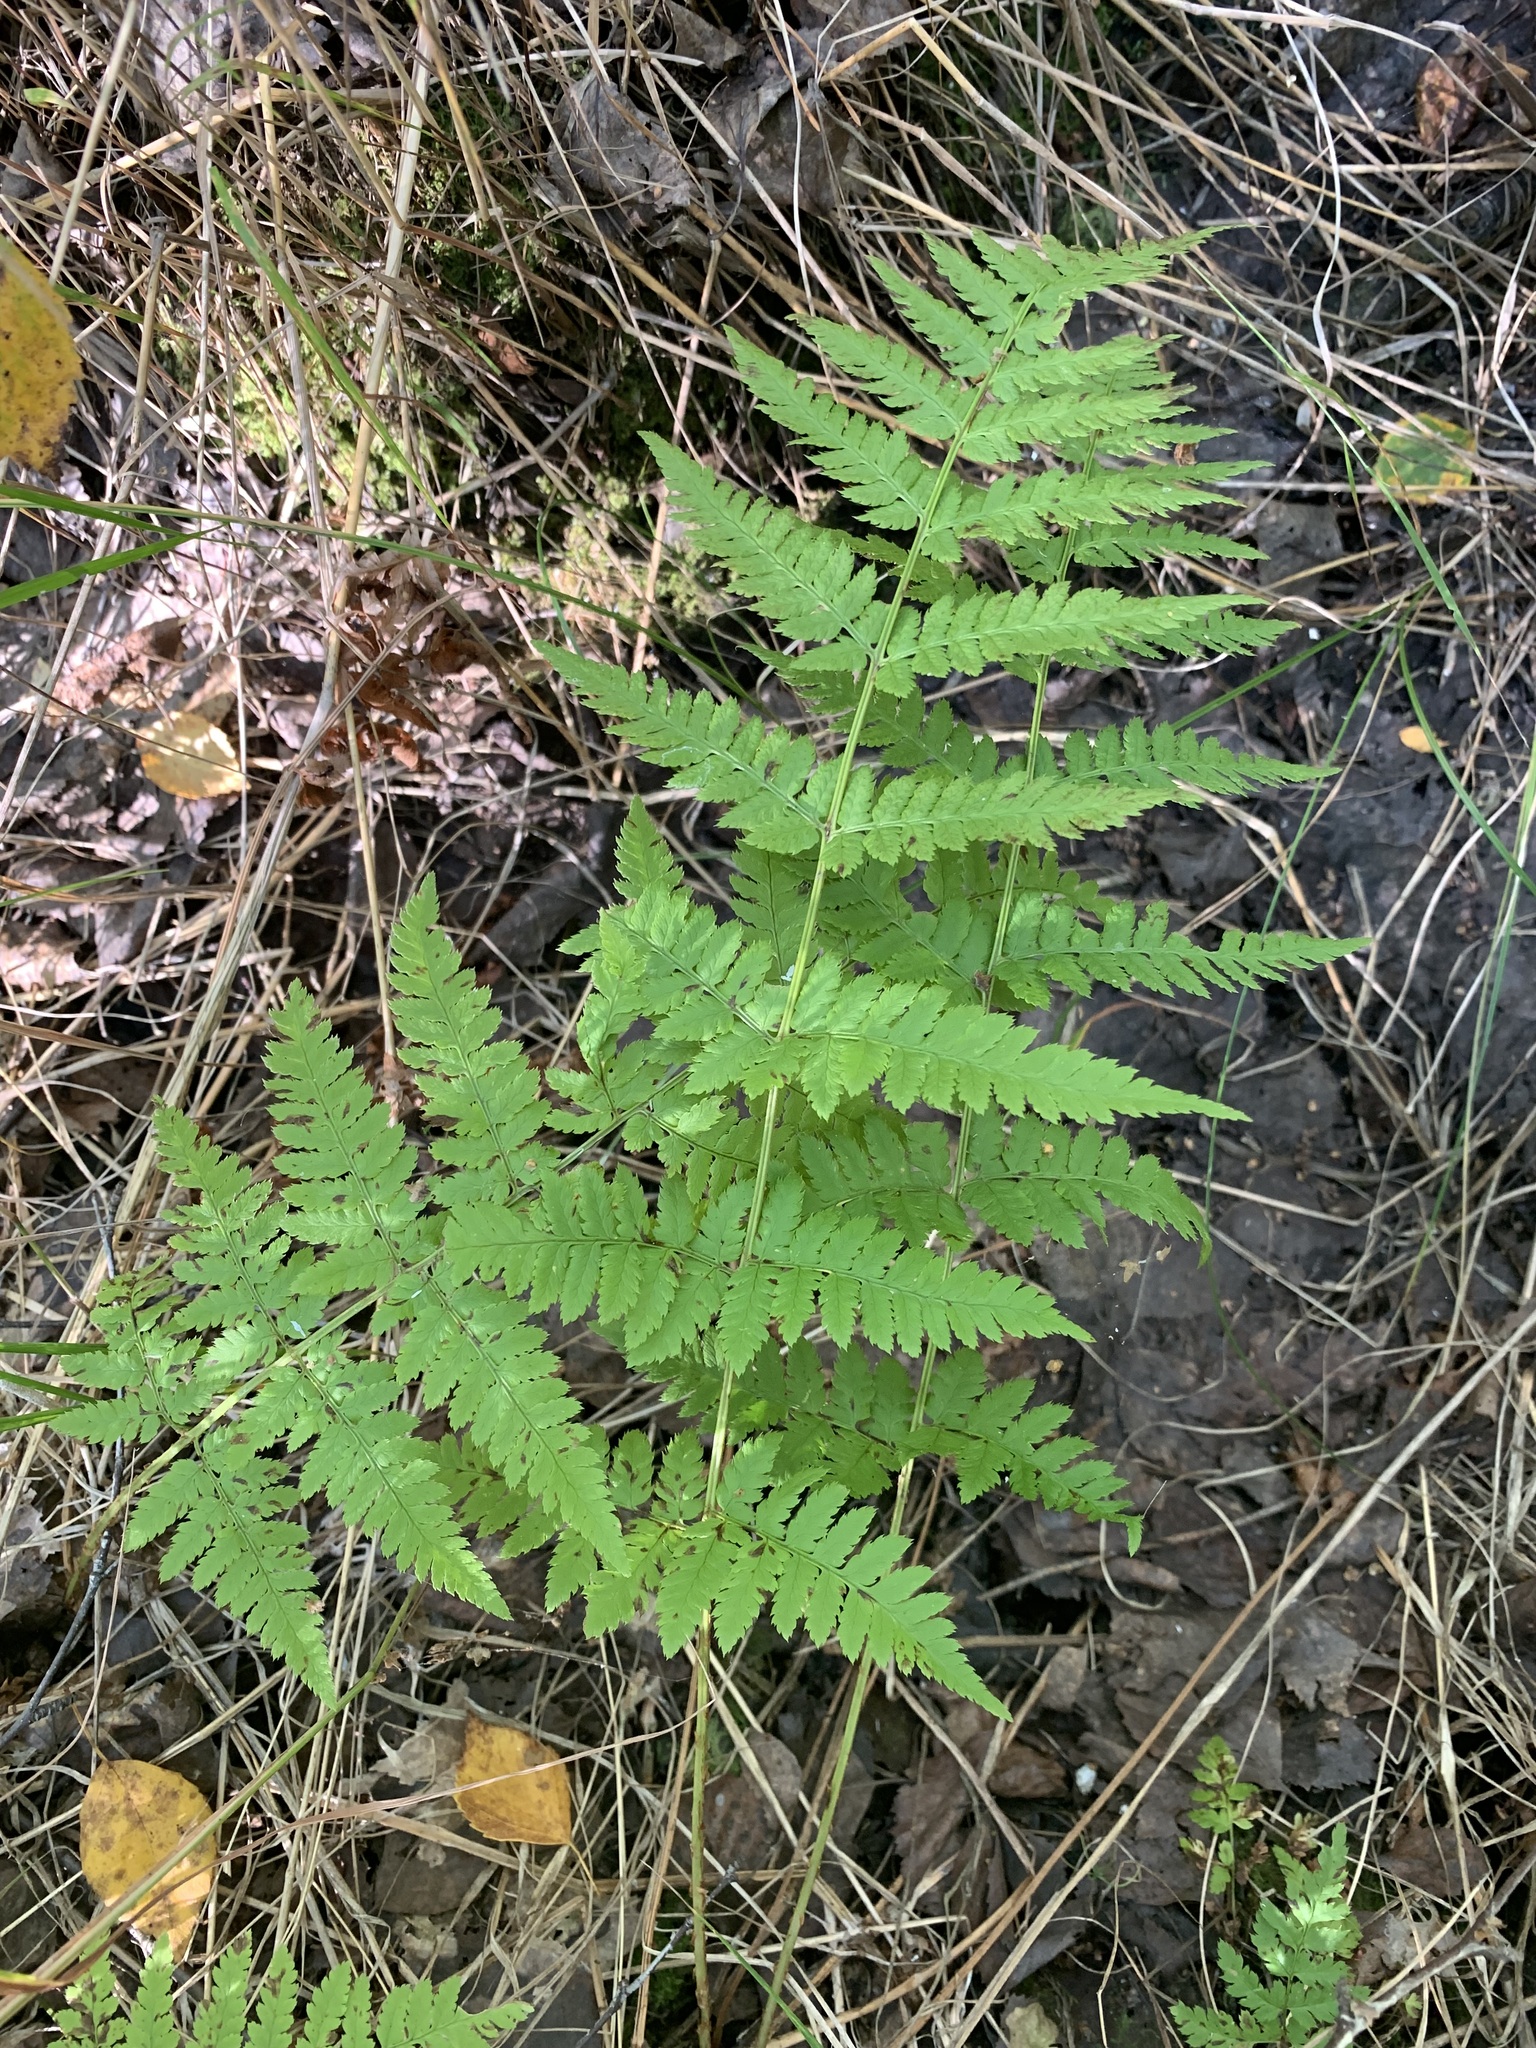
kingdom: Plantae
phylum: Tracheophyta
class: Polypodiopsida
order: Polypodiales
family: Dryopteridaceae
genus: Dryopteris
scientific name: Dryopteris carthusiana
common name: Narrow buckler-fern
